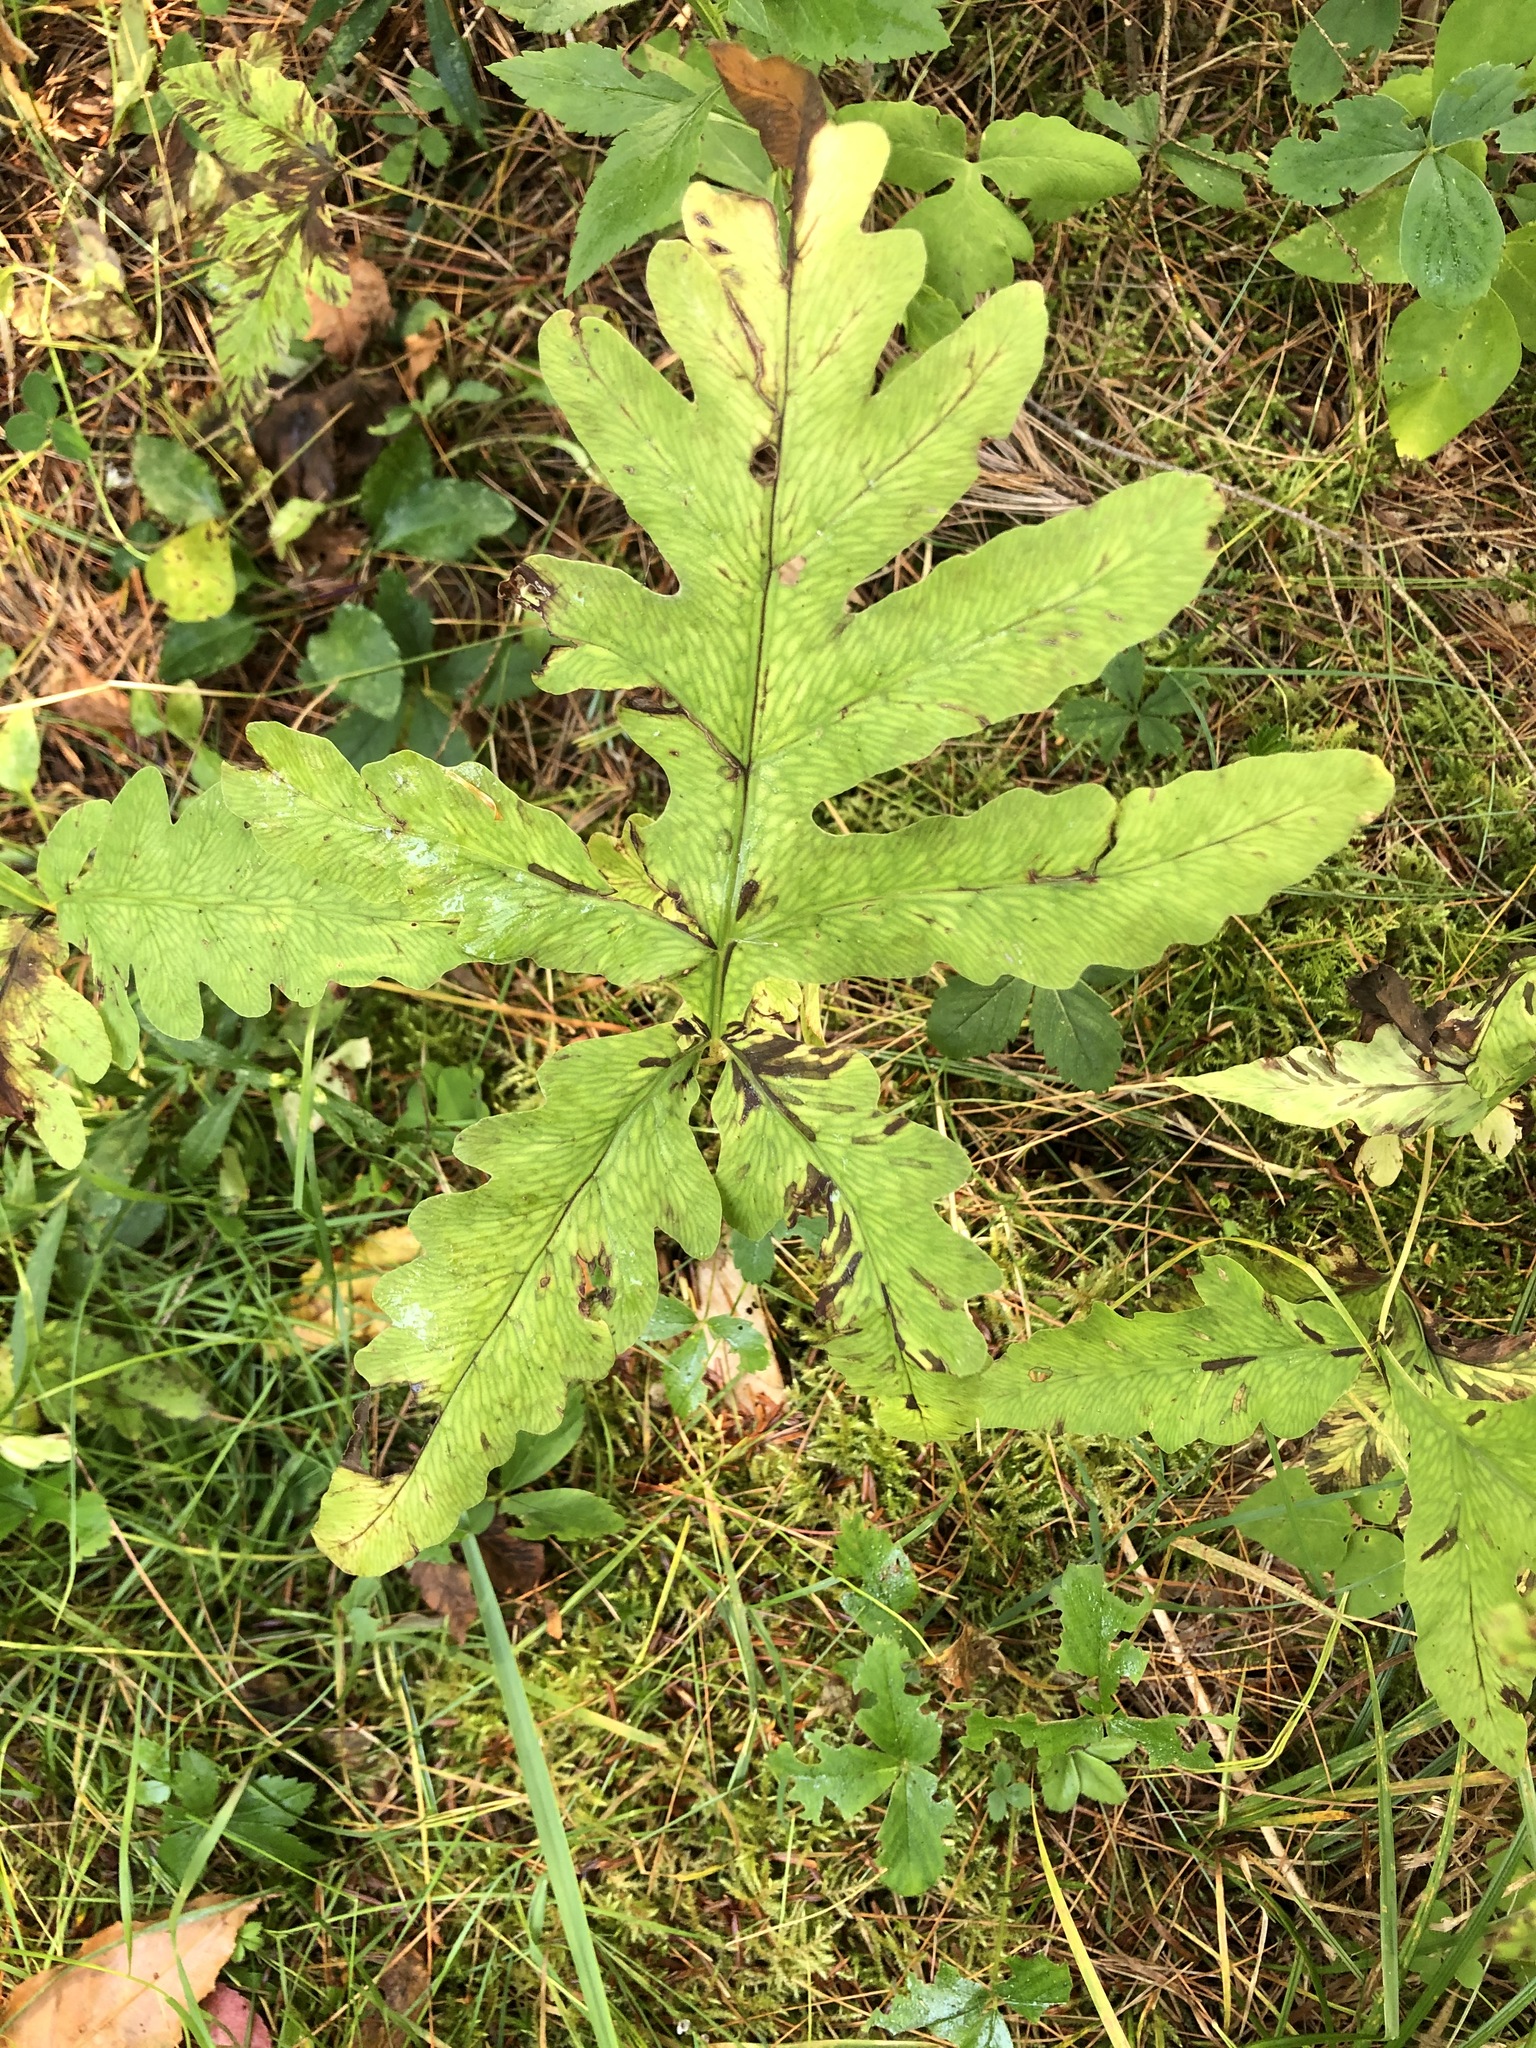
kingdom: Plantae
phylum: Tracheophyta
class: Polypodiopsida
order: Polypodiales
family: Onocleaceae
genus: Onoclea
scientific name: Onoclea sensibilis
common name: Sensitive fern
